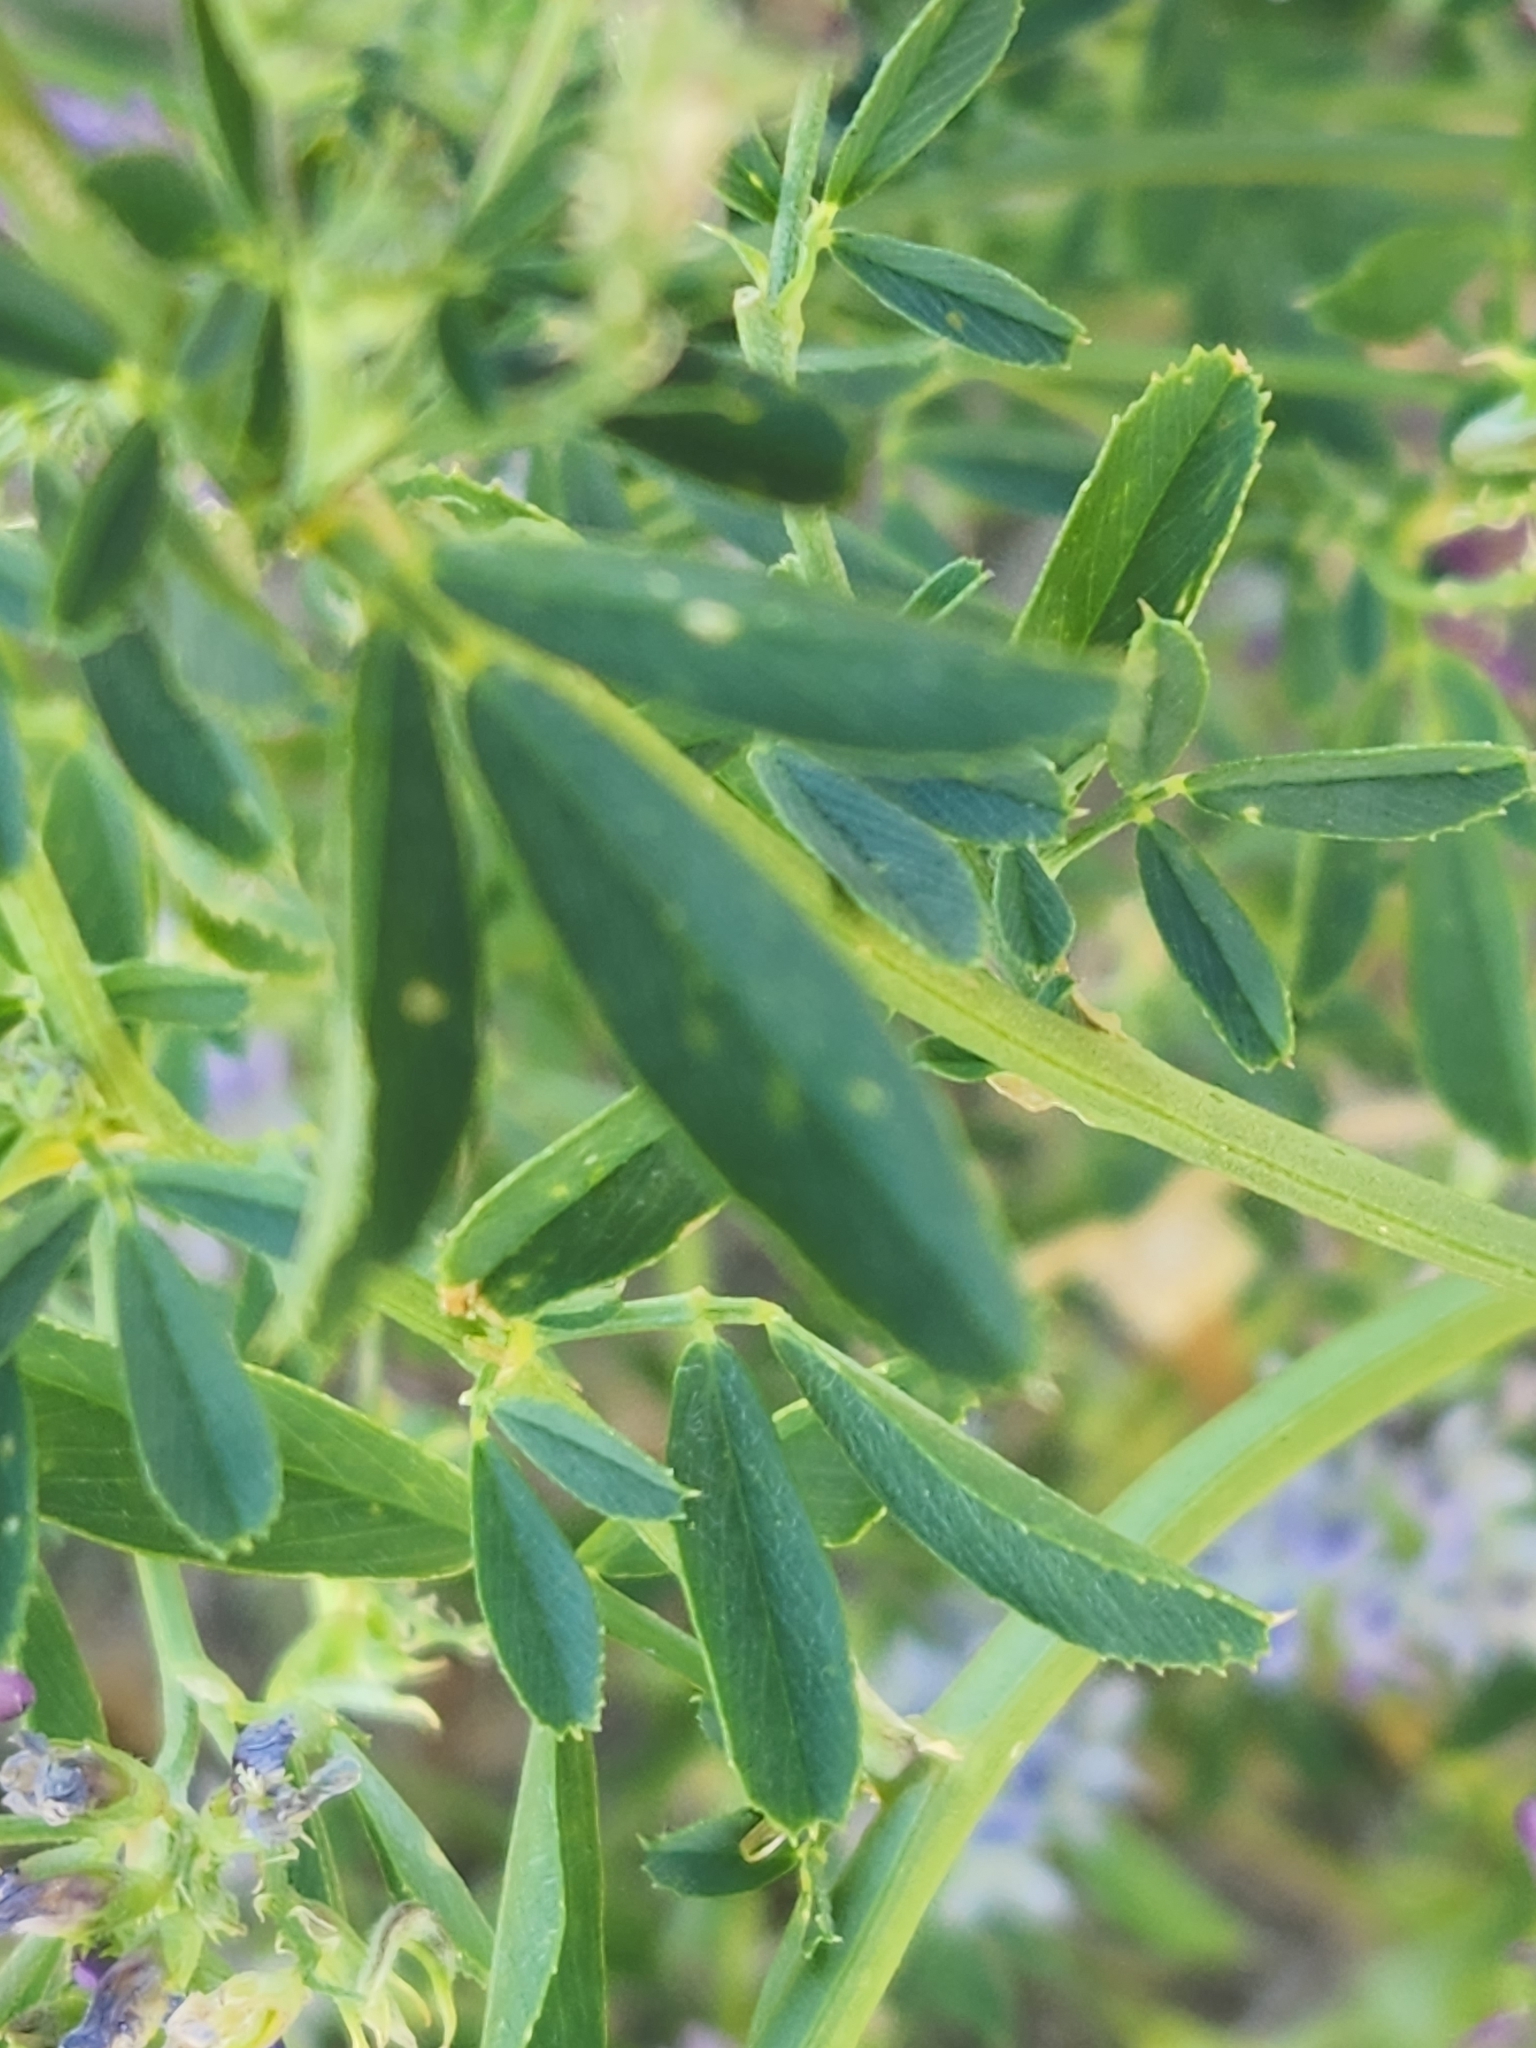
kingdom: Plantae
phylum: Tracheophyta
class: Magnoliopsida
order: Fabales
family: Fabaceae
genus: Medicago
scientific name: Medicago sativa
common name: Alfalfa
